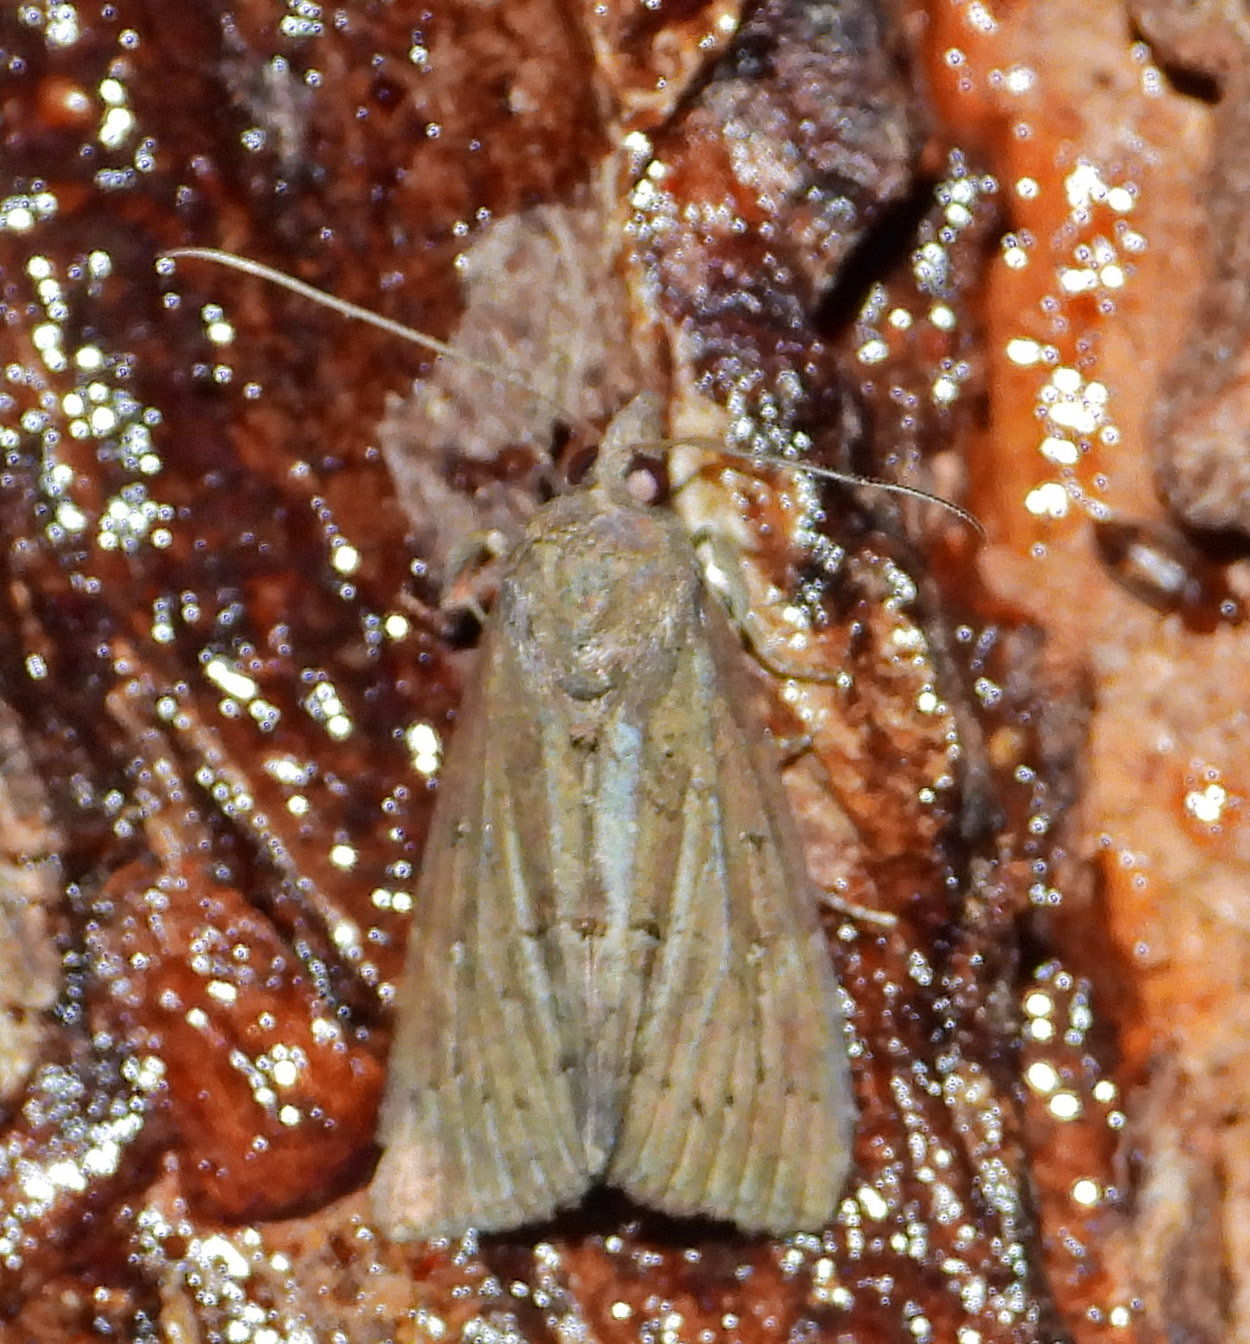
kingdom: Animalia
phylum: Arthropoda
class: Insecta
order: Lepidoptera
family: Erebidae
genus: Hypena
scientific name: Hypena scabra
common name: Green cloverworm
